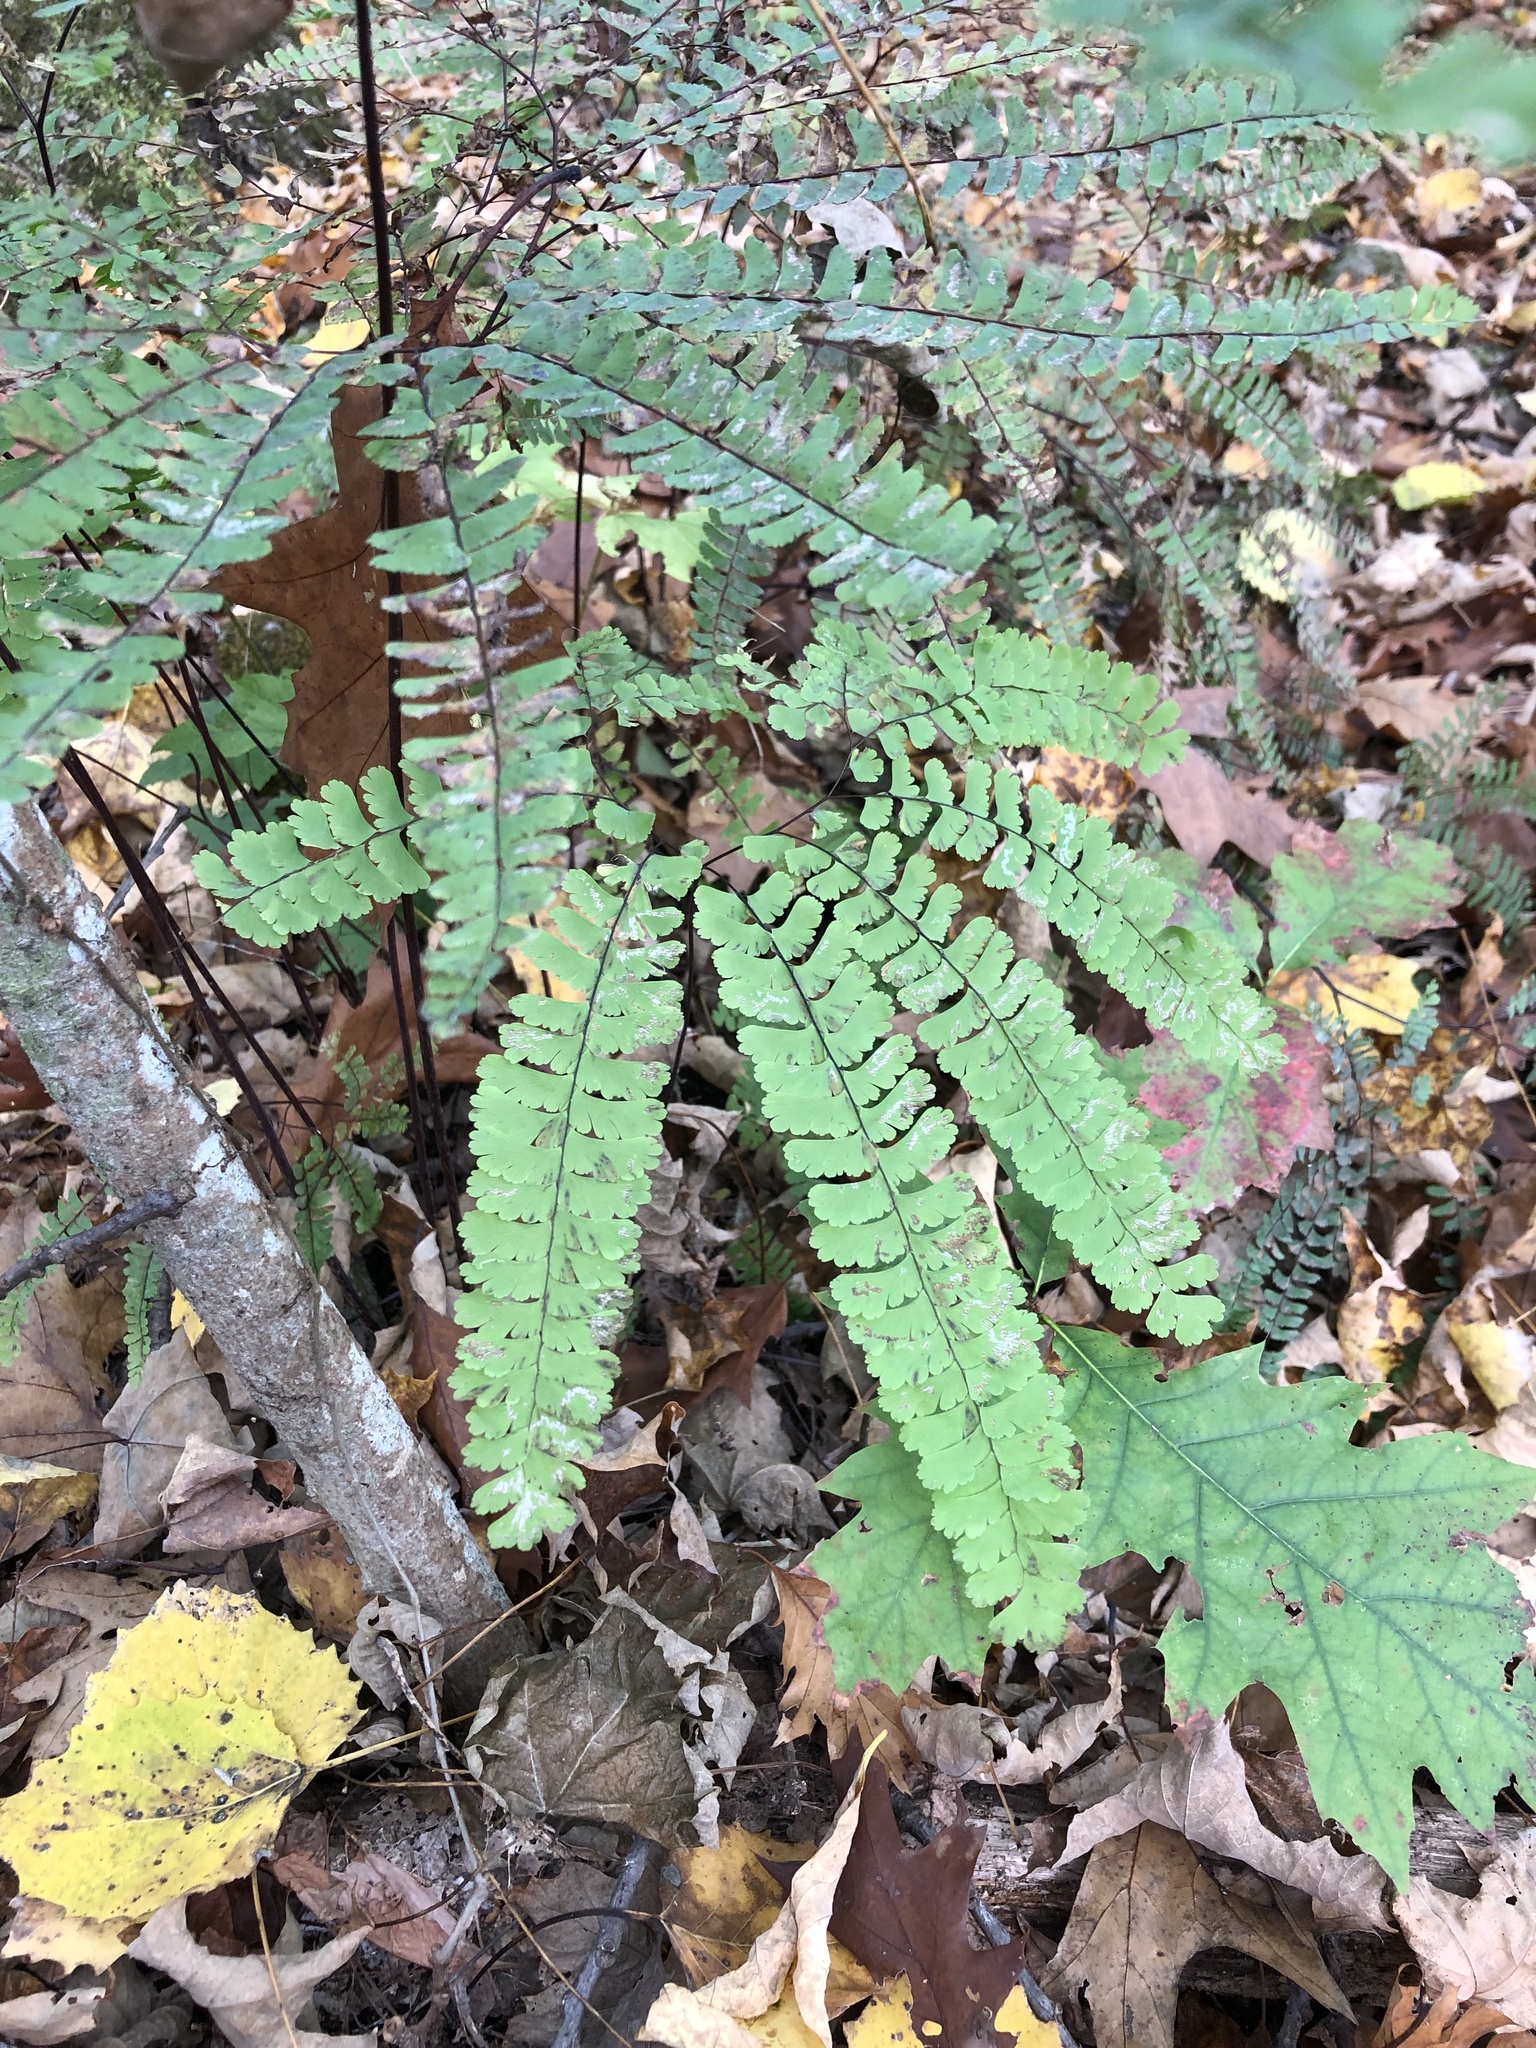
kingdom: Plantae
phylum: Tracheophyta
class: Polypodiopsida
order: Polypodiales
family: Pteridaceae
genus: Adiantum
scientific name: Adiantum pedatum
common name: Five-finger fern
